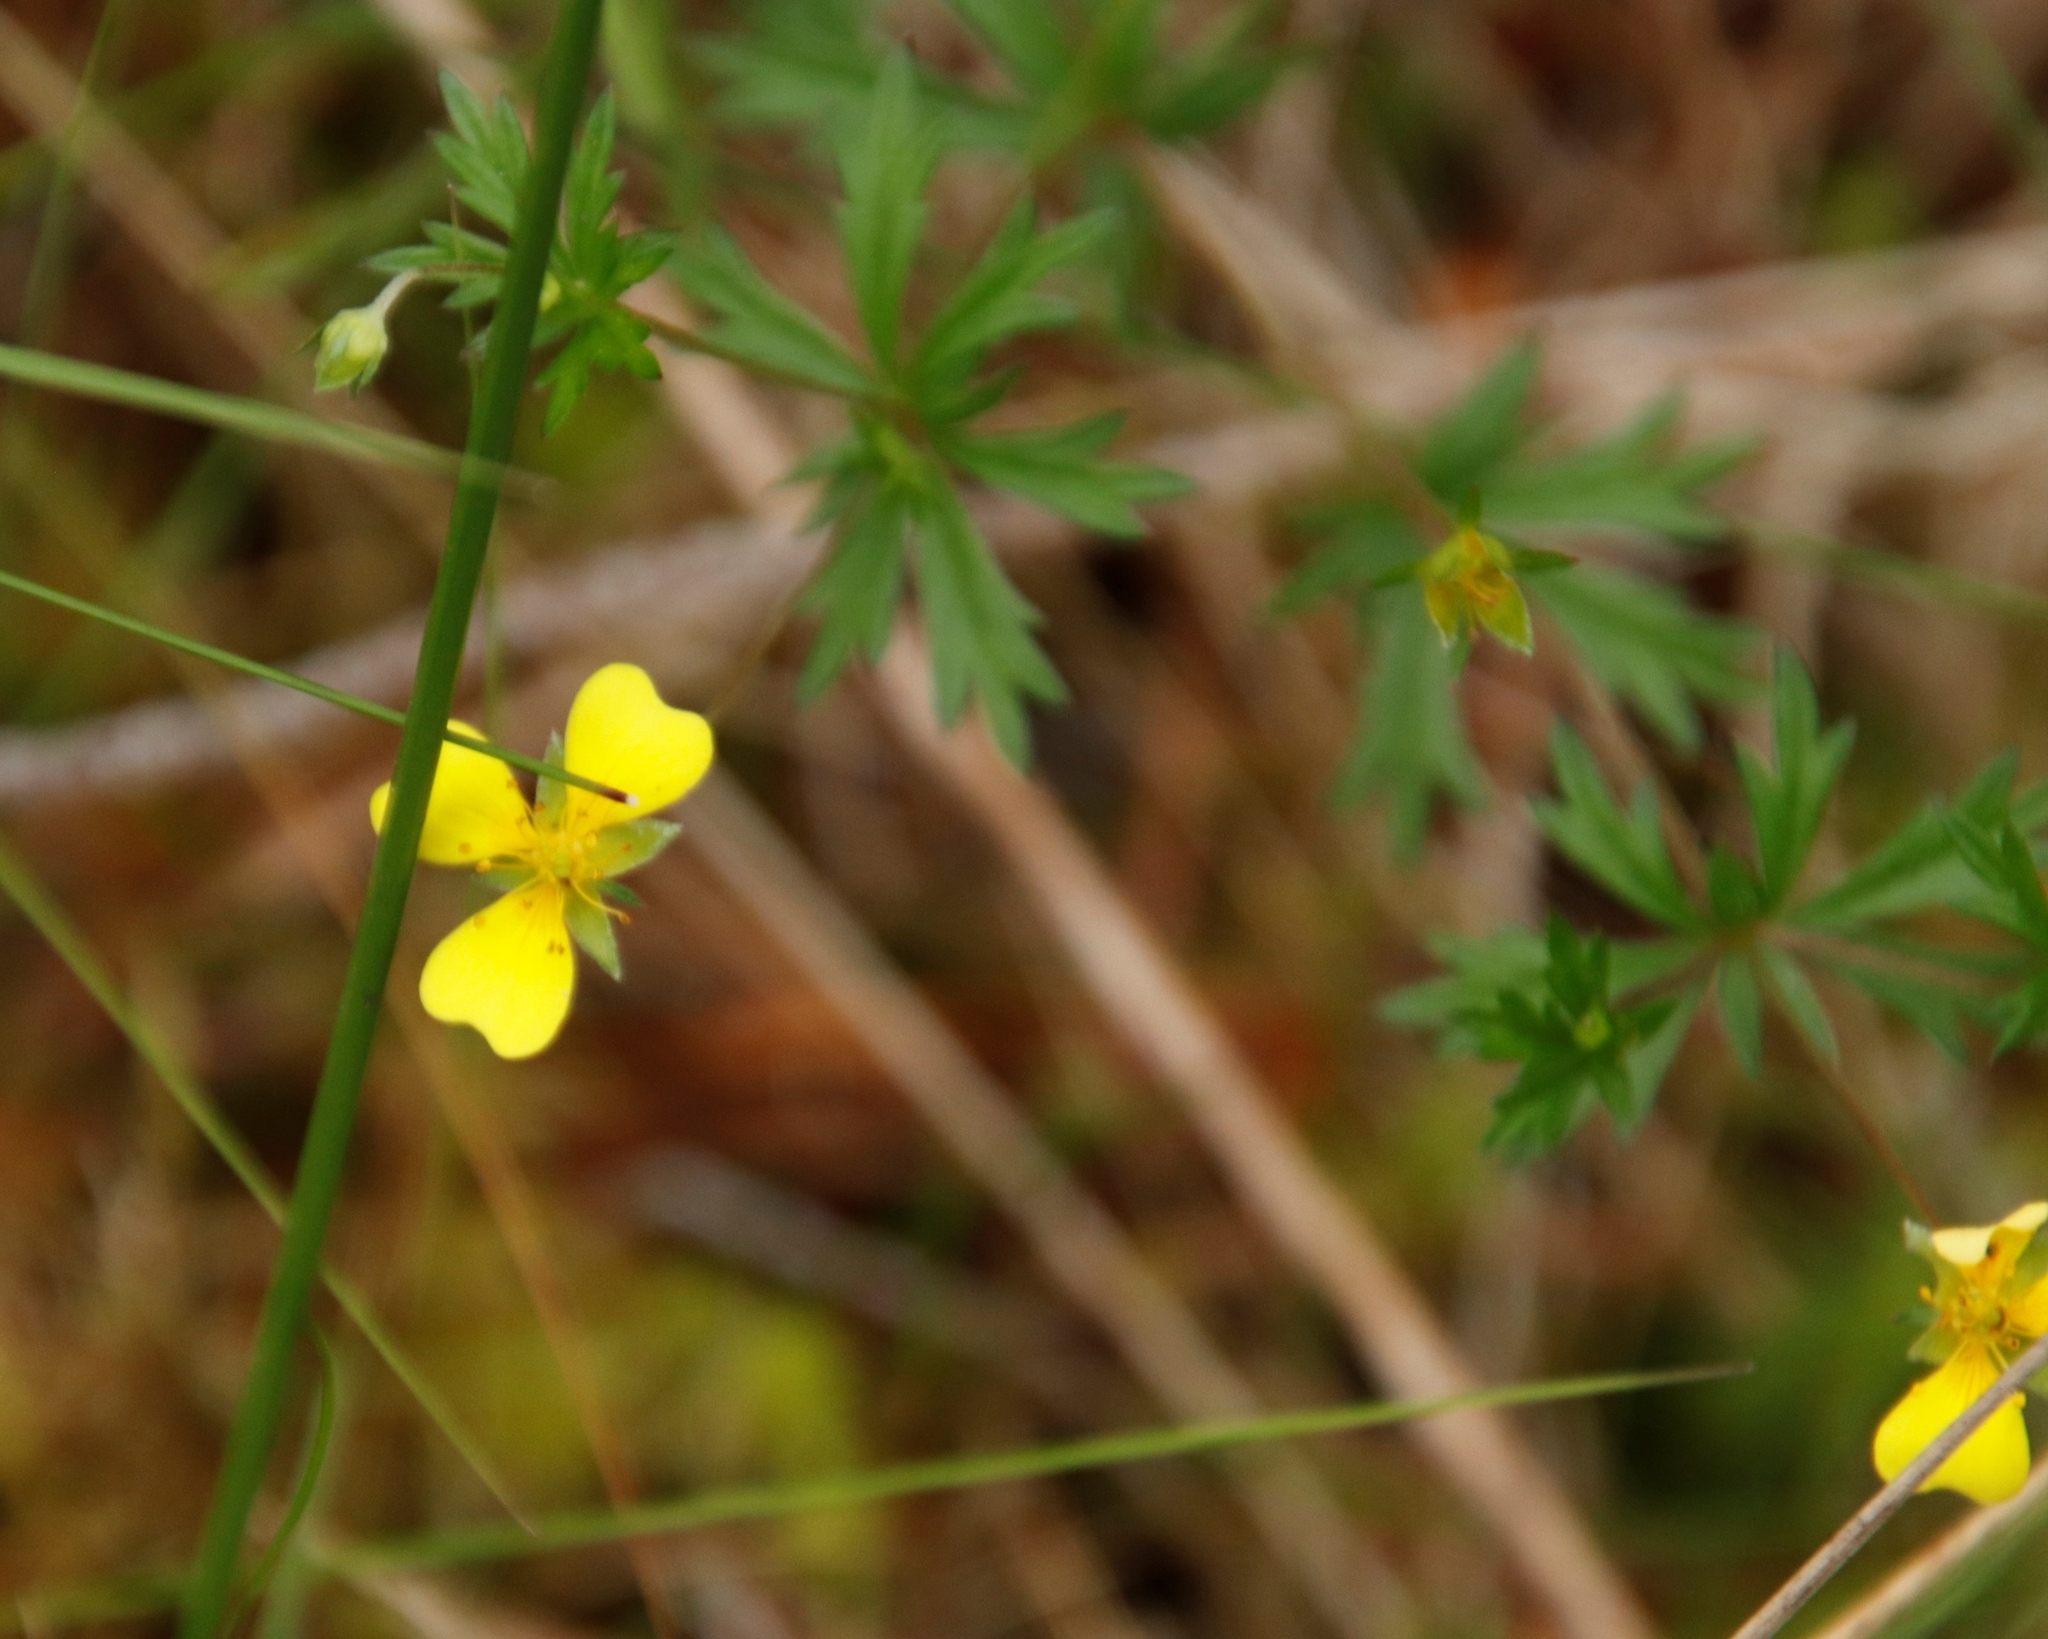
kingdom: Plantae
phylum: Tracheophyta
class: Magnoliopsida
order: Rosales
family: Rosaceae
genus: Potentilla
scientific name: Potentilla erecta
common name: Tormentil
